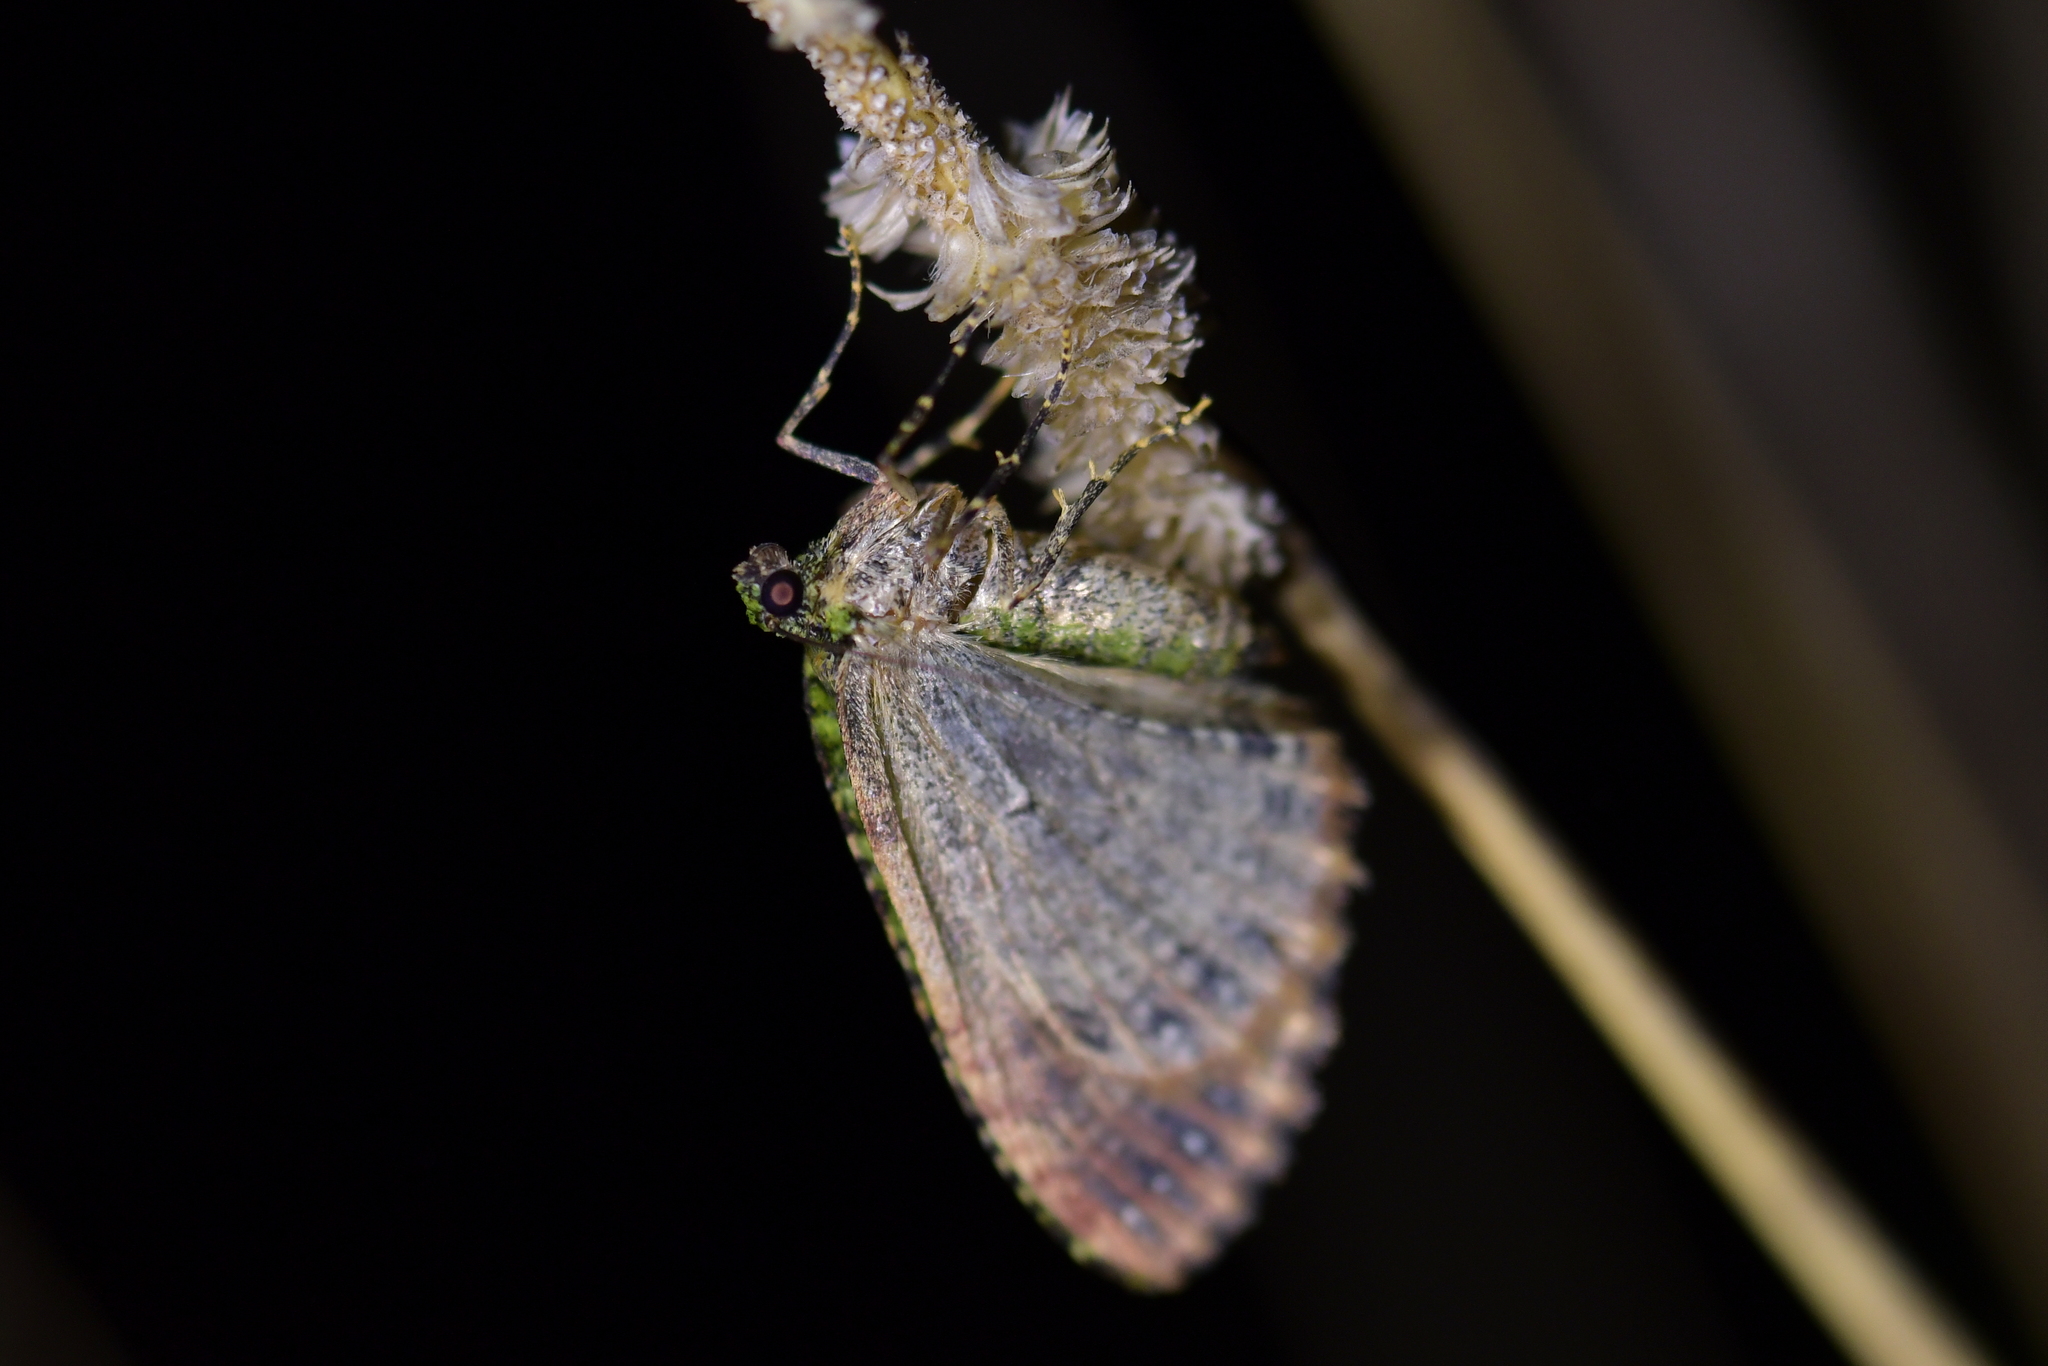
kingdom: Animalia
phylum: Arthropoda
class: Insecta
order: Lepidoptera
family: Geometridae
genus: Austrocidaria
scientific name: Austrocidaria similata
